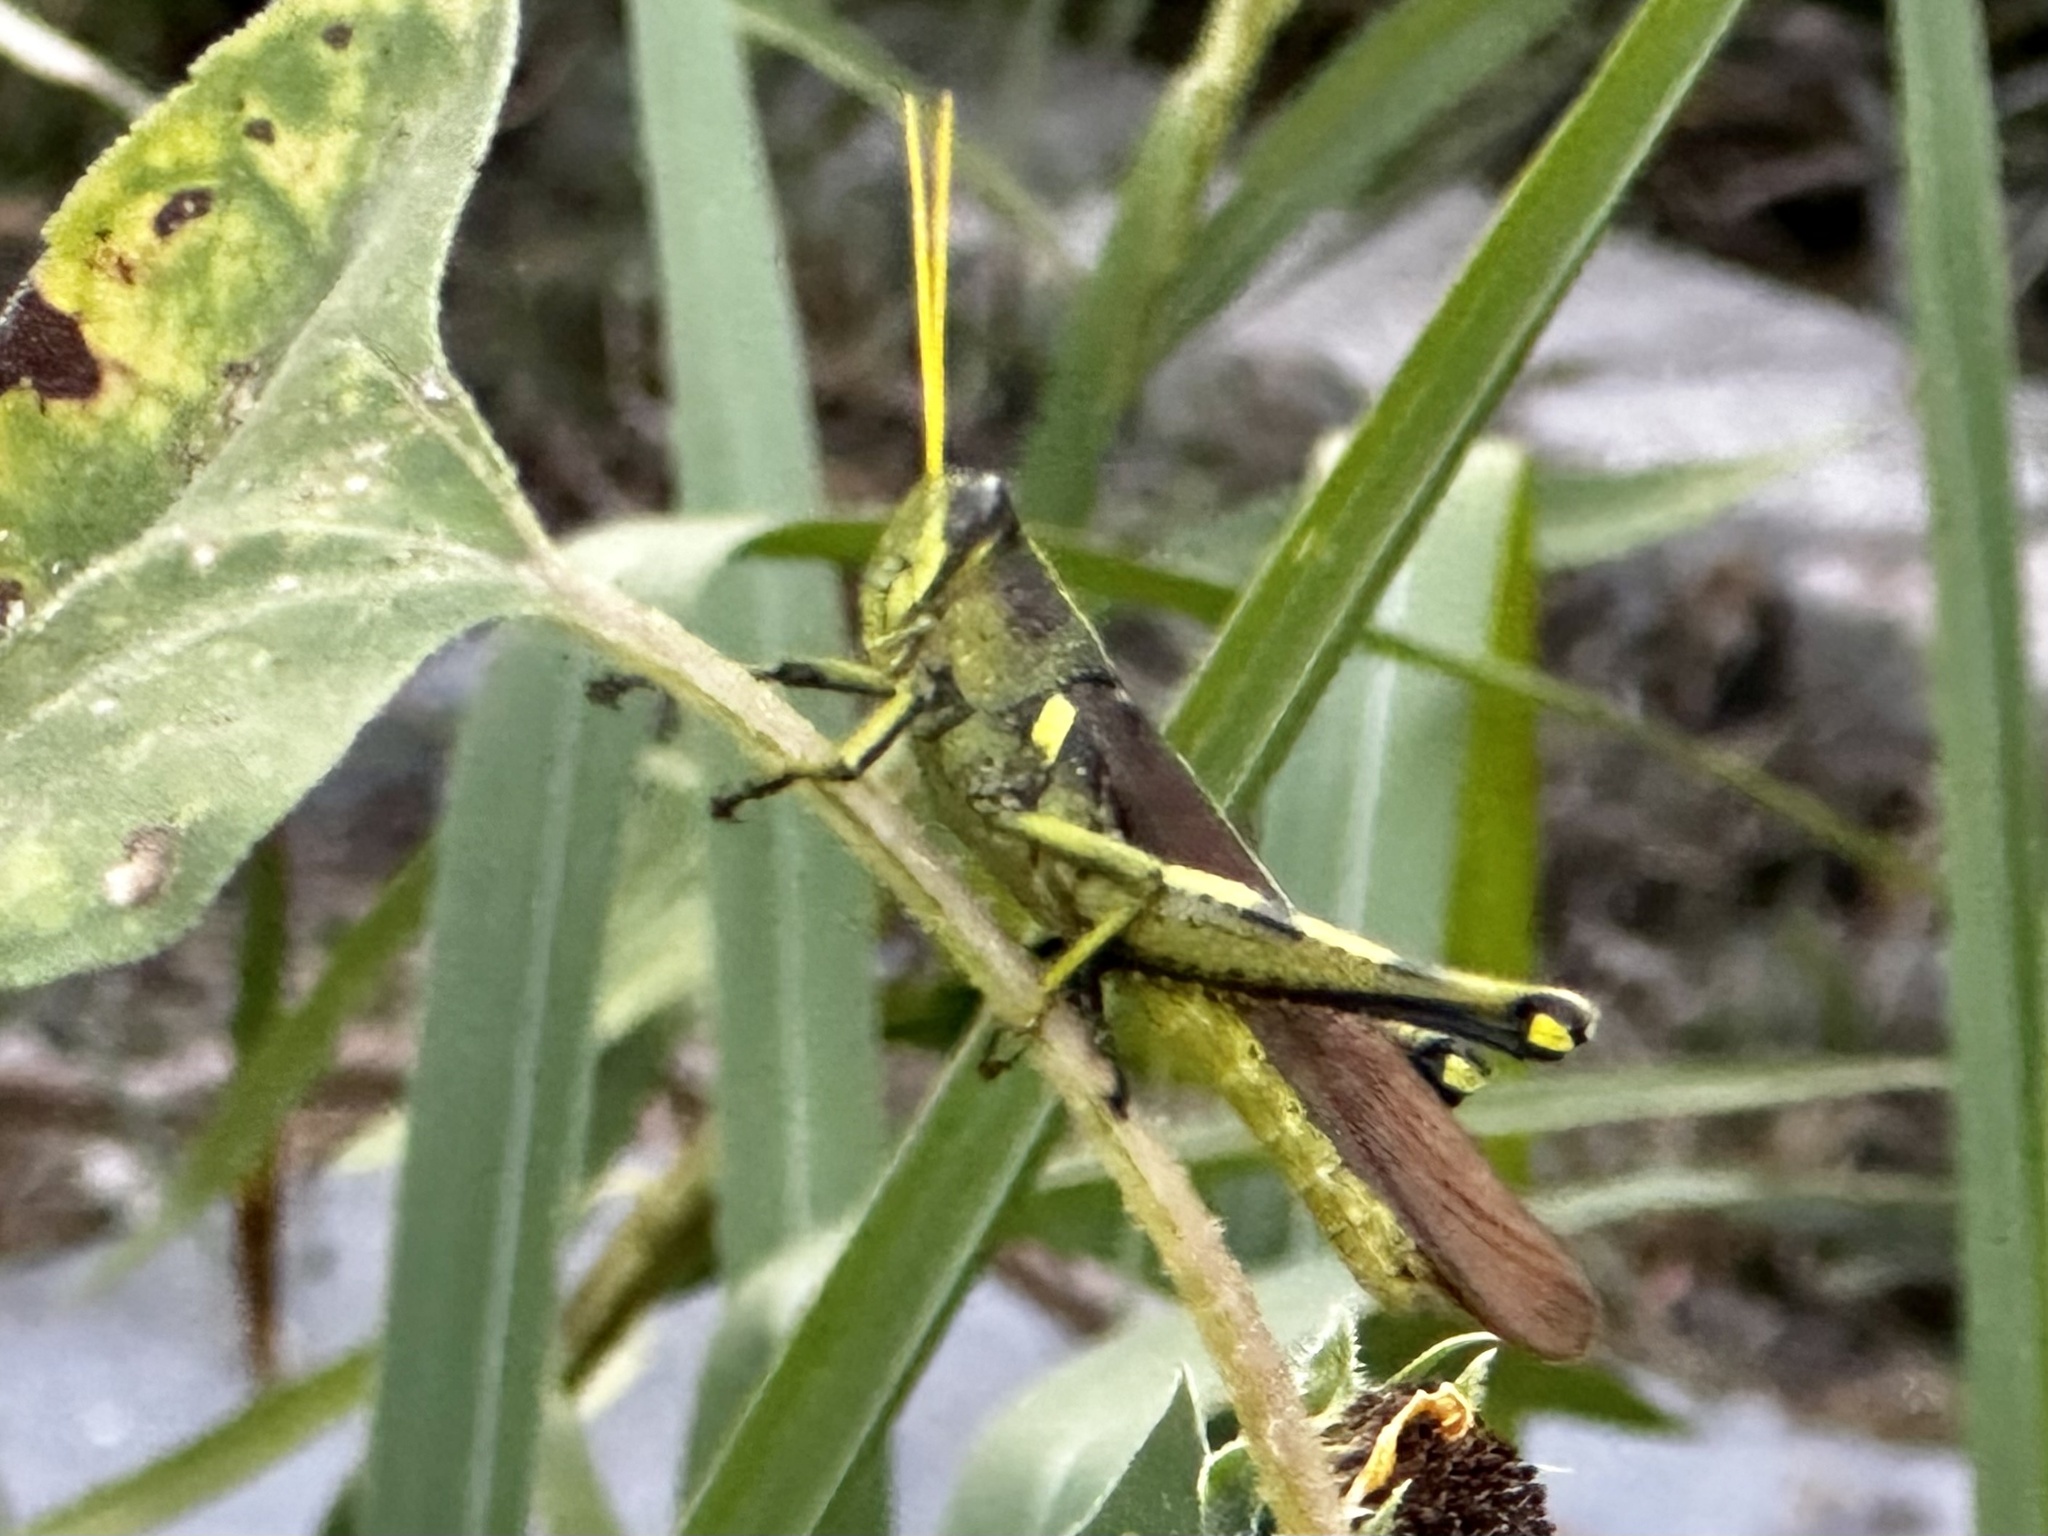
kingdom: Animalia
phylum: Arthropoda
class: Insecta
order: Orthoptera
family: Acrididae
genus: Schistocerca
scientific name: Schistocerca obscura
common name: Obscure bird grasshopper
